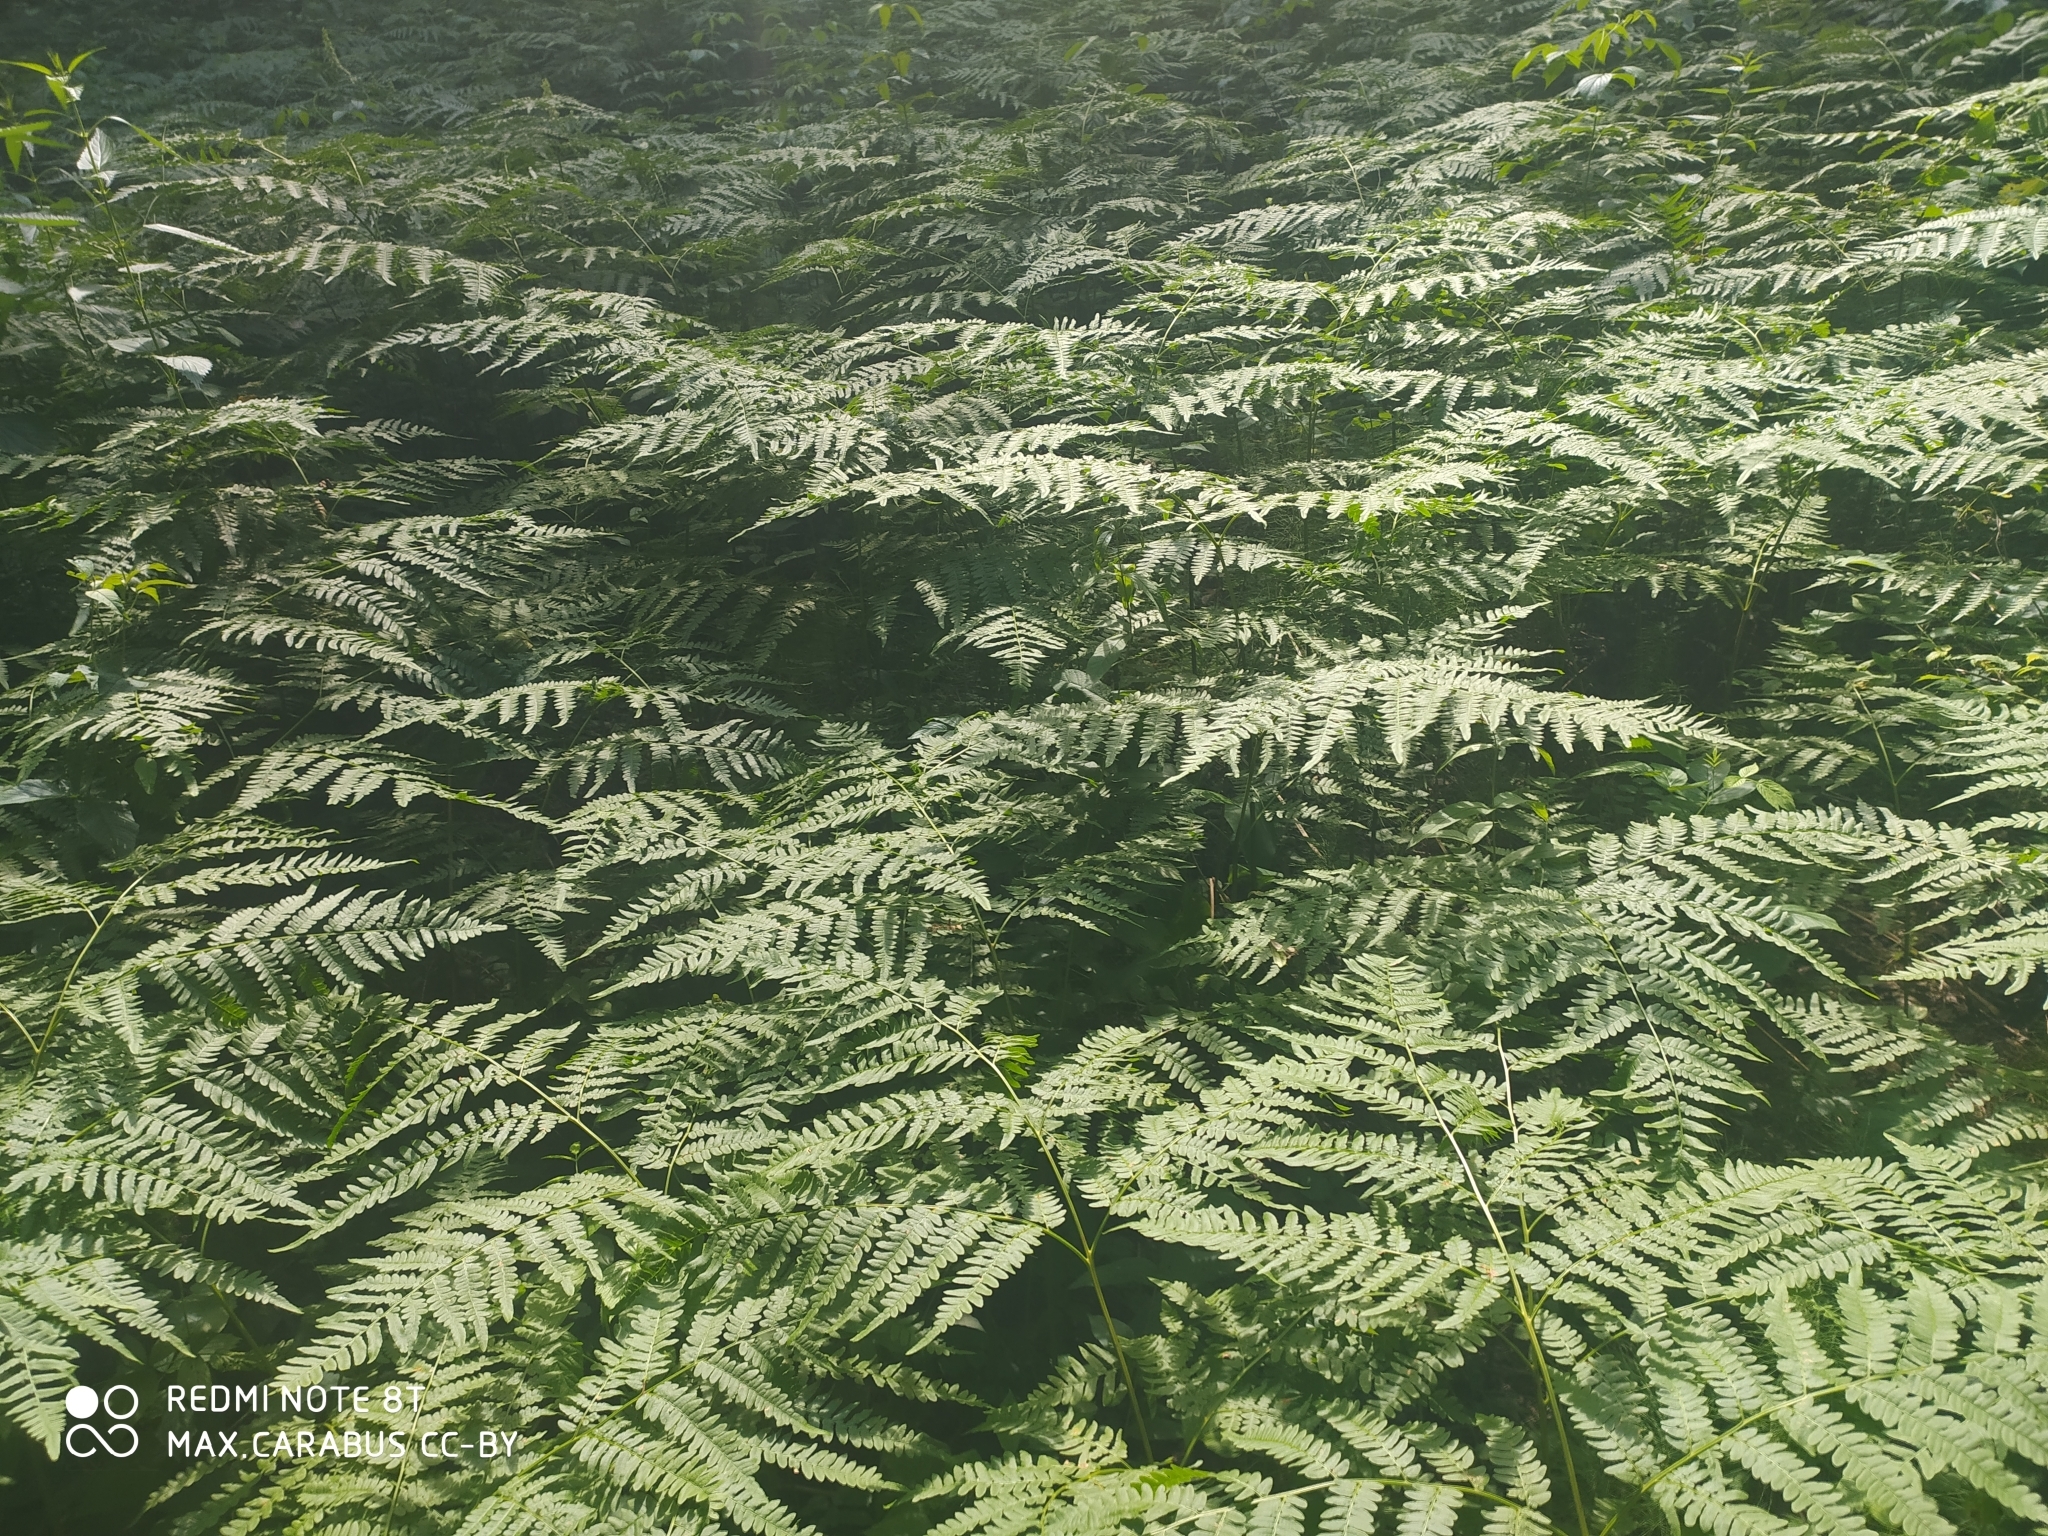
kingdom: Plantae
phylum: Tracheophyta
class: Polypodiopsida
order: Polypodiales
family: Dennstaedtiaceae
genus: Pteridium
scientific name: Pteridium aquilinum
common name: Bracken
